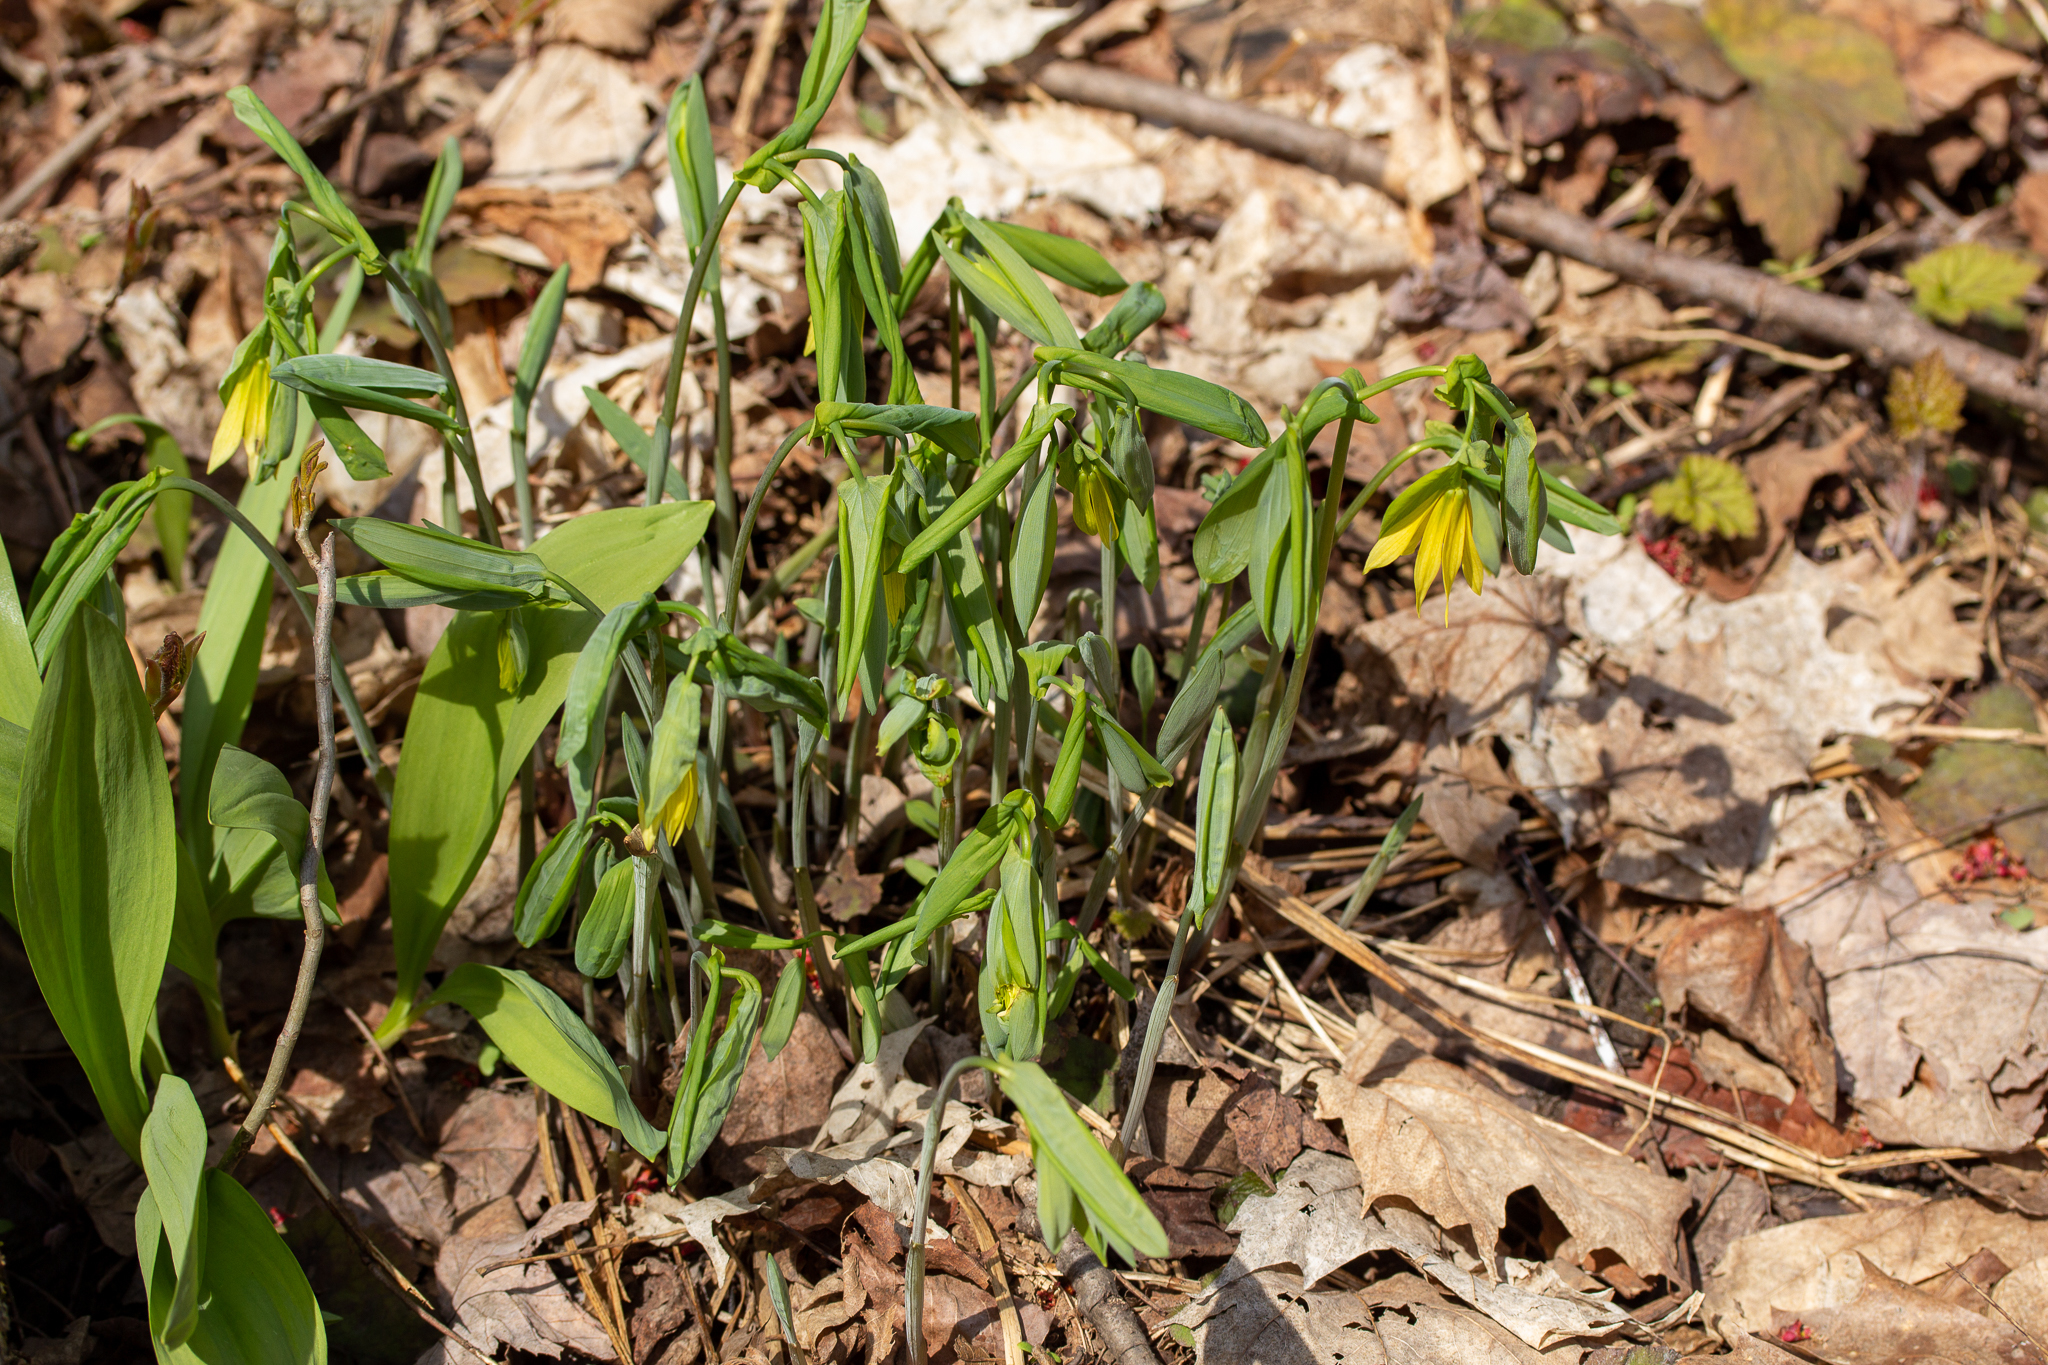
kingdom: Plantae
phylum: Tracheophyta
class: Liliopsida
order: Liliales
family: Colchicaceae
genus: Uvularia
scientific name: Uvularia grandiflora
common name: Bellwort
